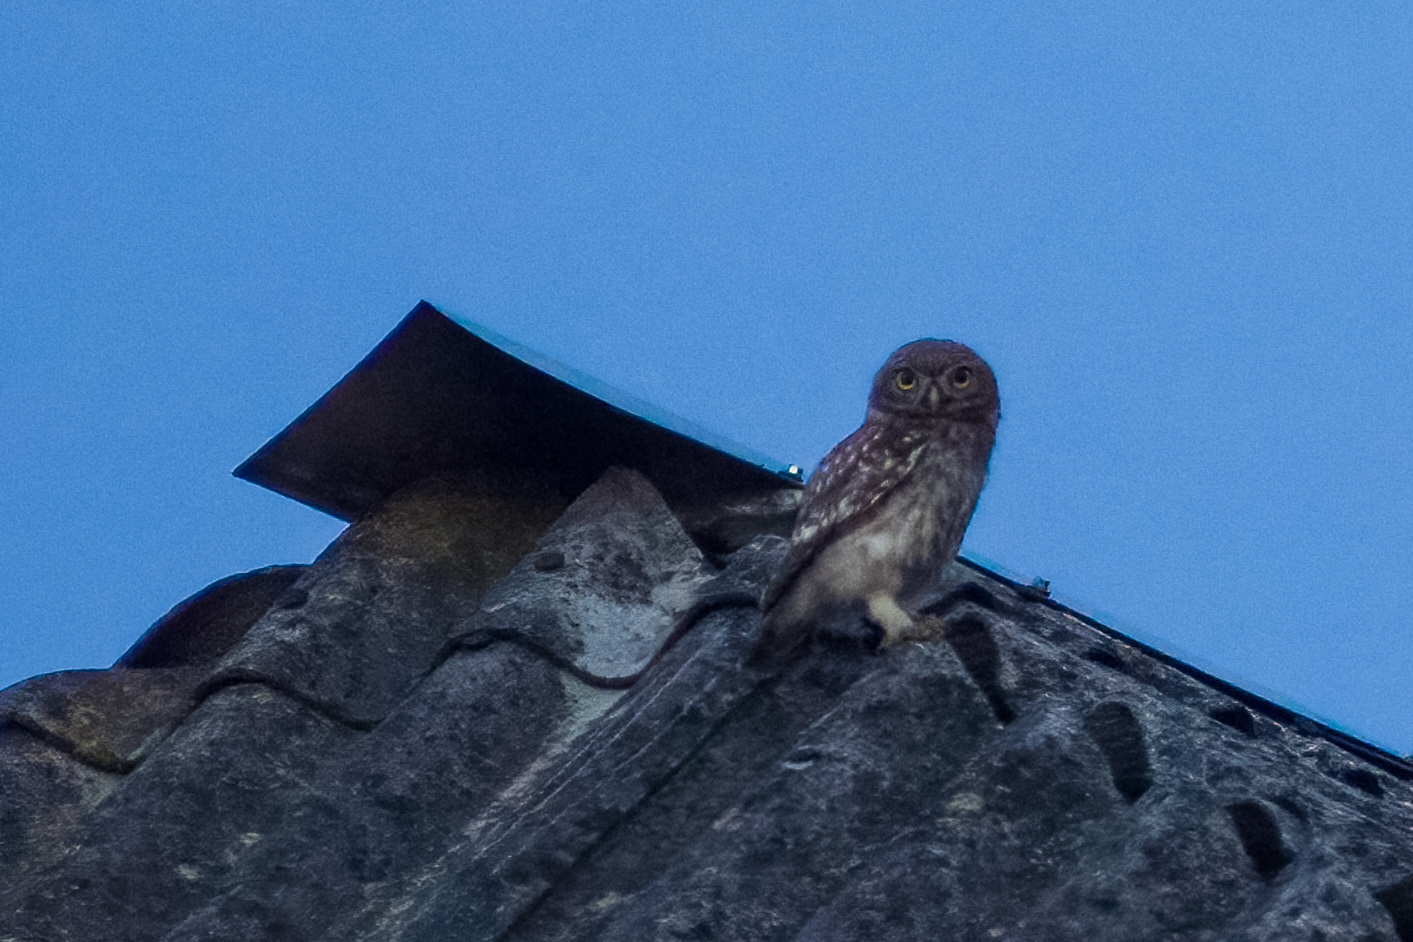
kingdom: Animalia
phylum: Chordata
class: Aves
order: Strigiformes
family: Strigidae
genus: Athene
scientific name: Athene noctua
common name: Little owl
